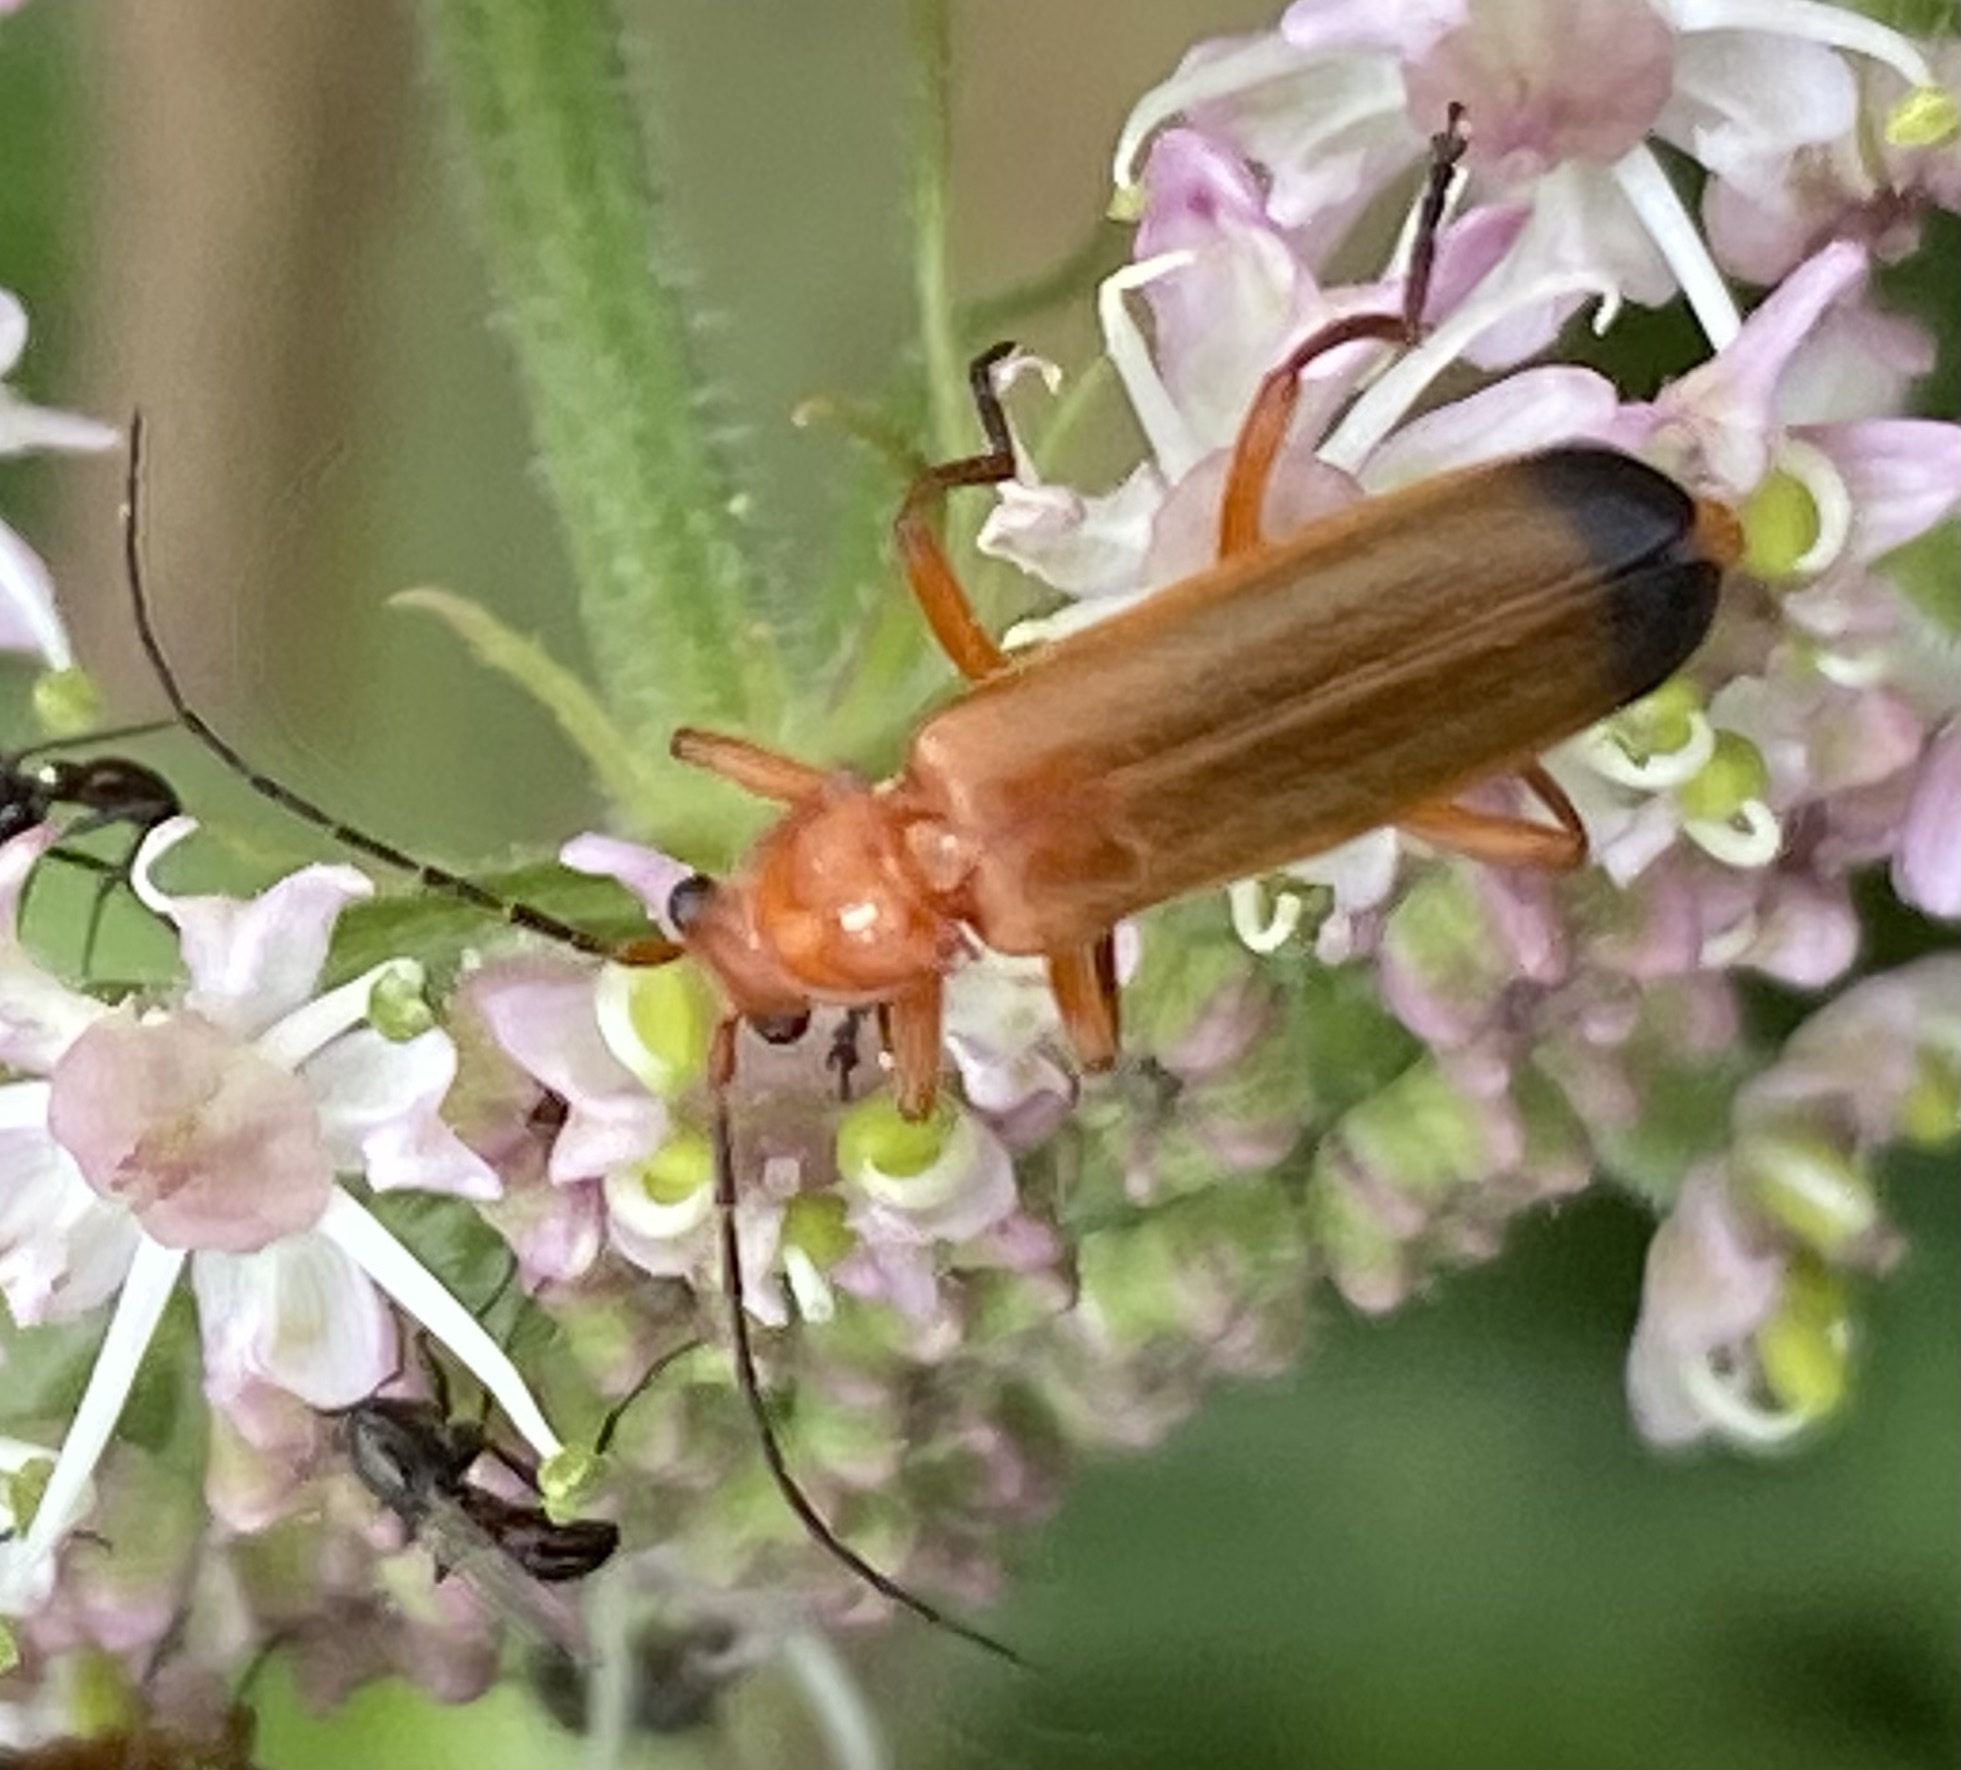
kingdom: Animalia
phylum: Arthropoda
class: Insecta
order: Coleoptera
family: Cantharidae
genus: Rhagonycha
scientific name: Rhagonycha fulva
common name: Common red soldier beetle
